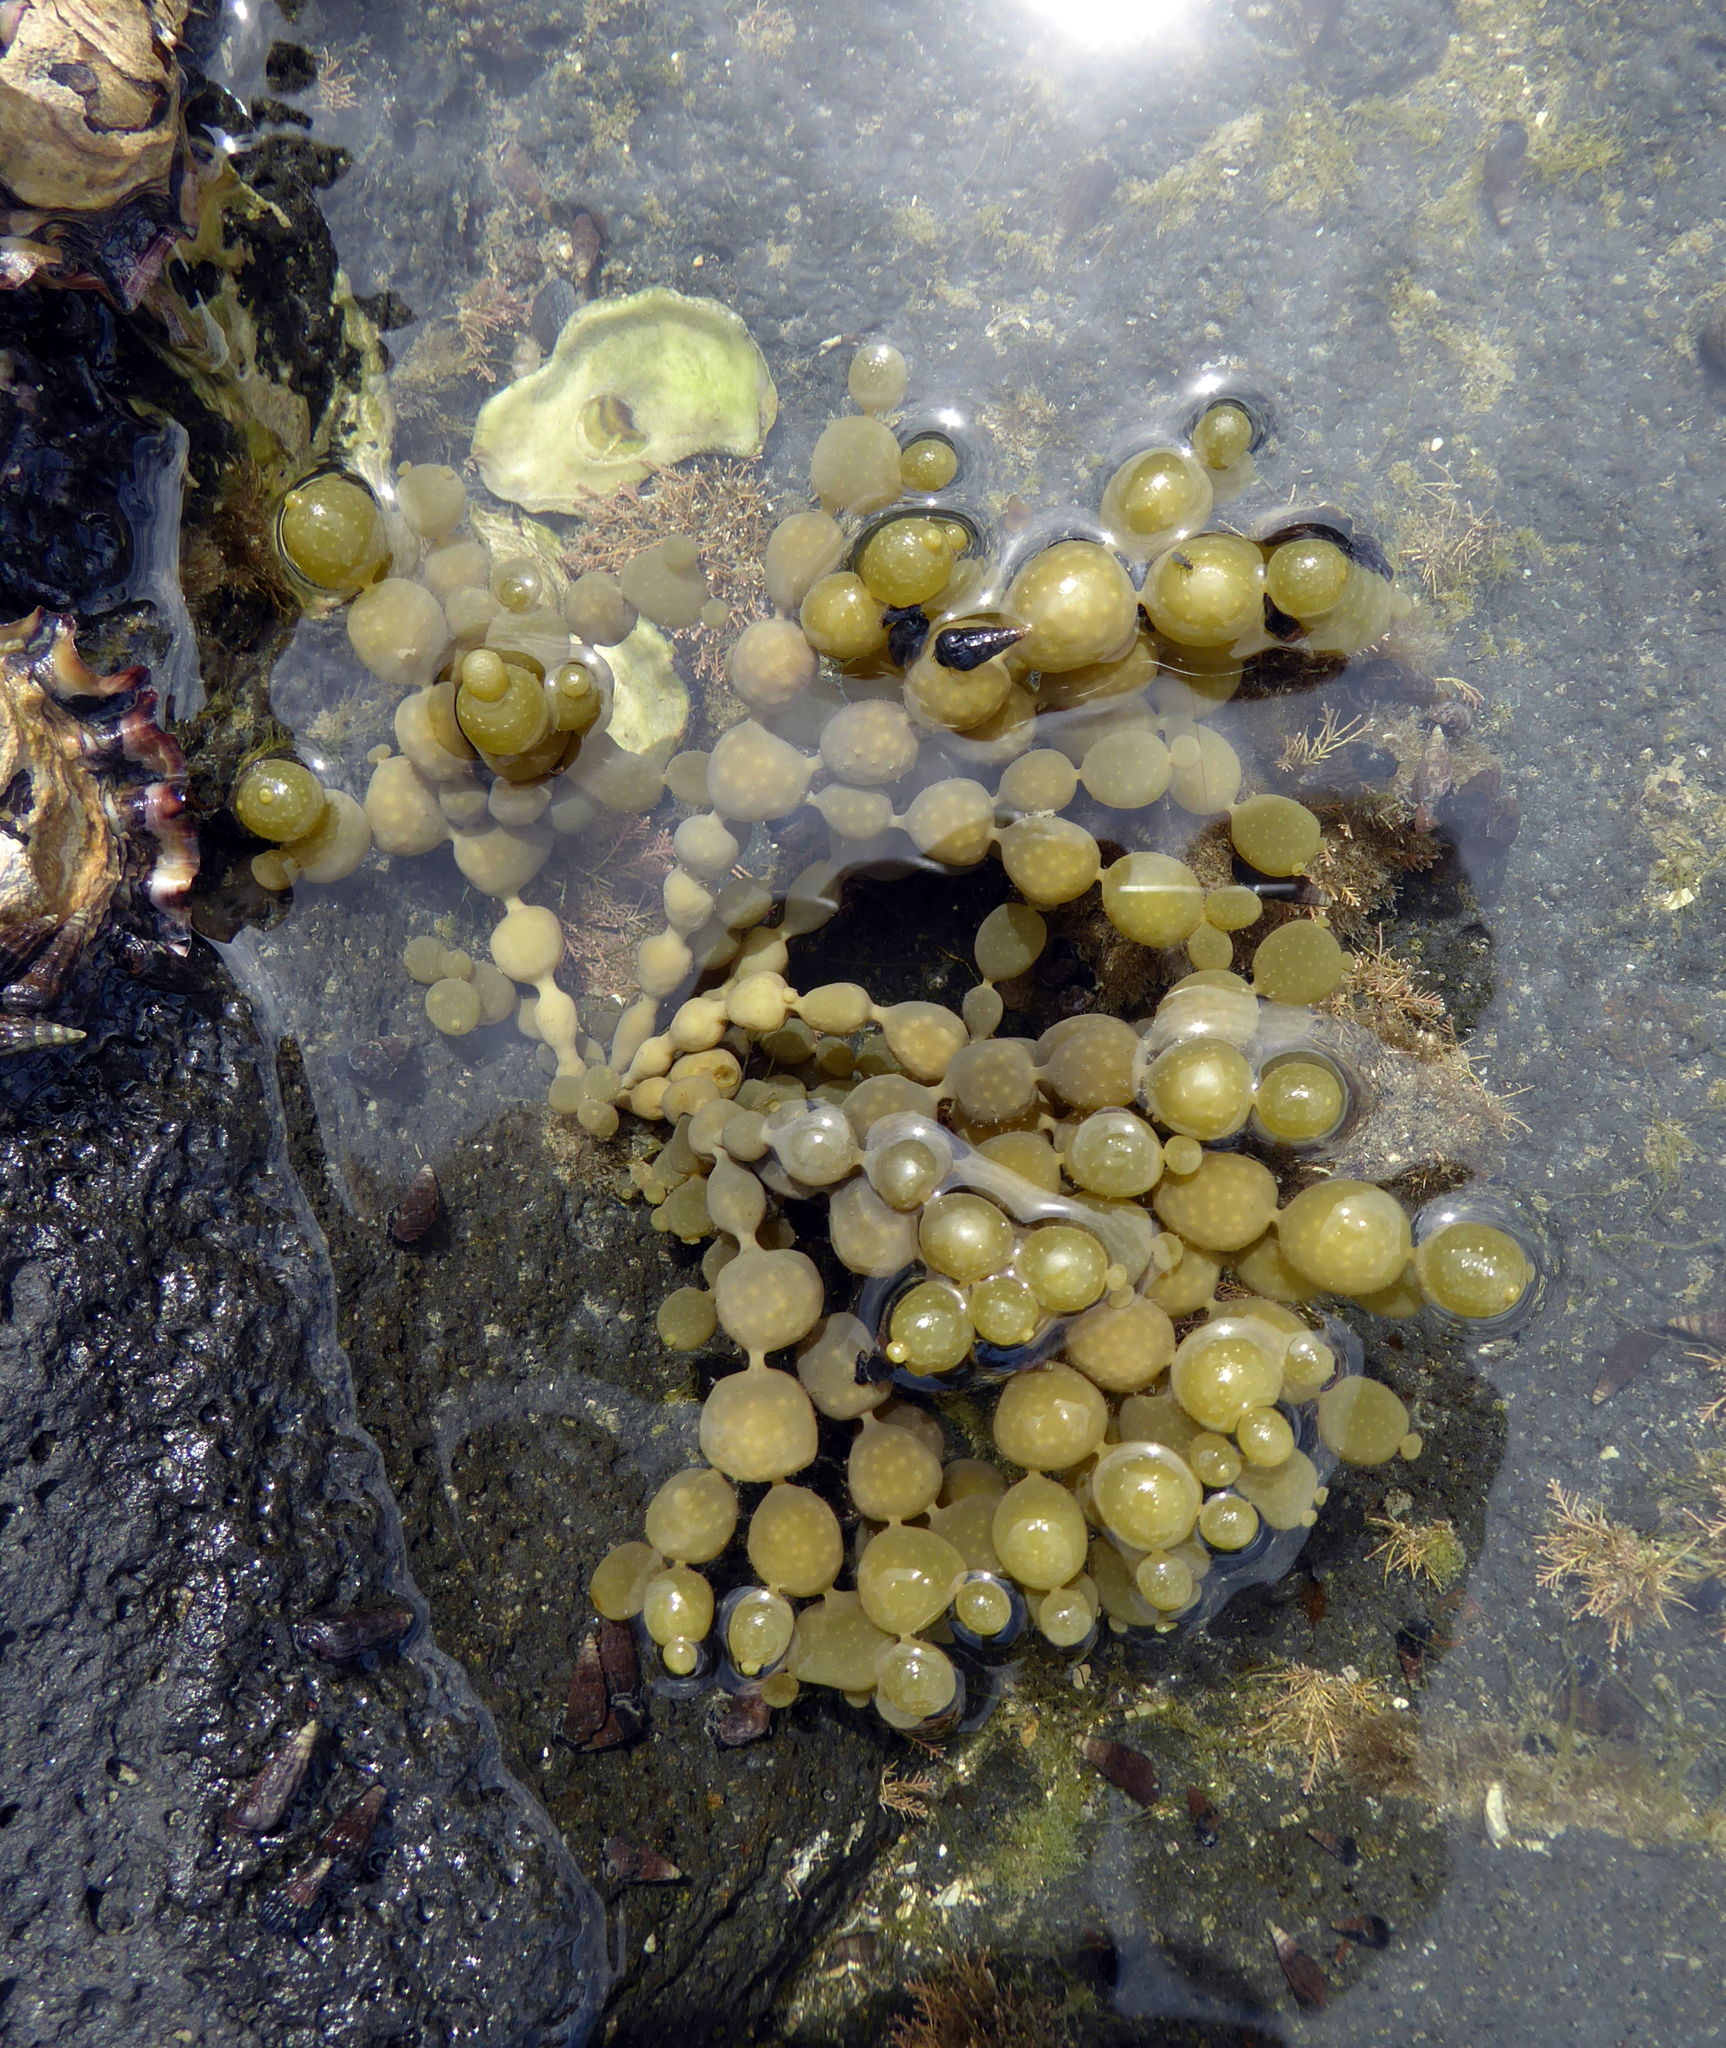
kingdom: Chromista
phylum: Ochrophyta
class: Phaeophyceae
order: Fucales
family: Hormosiraceae
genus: Hormosira
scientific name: Hormosira banksii
